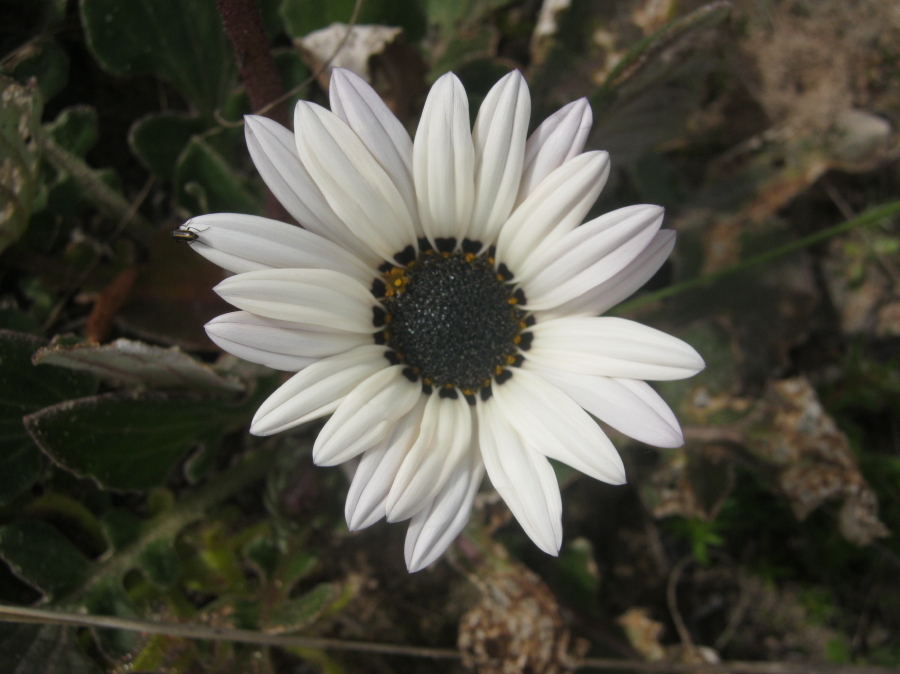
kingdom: Plantae
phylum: Tracheophyta
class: Magnoliopsida
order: Asterales
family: Asteraceae
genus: Arctotis
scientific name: Arctotis acaulis
